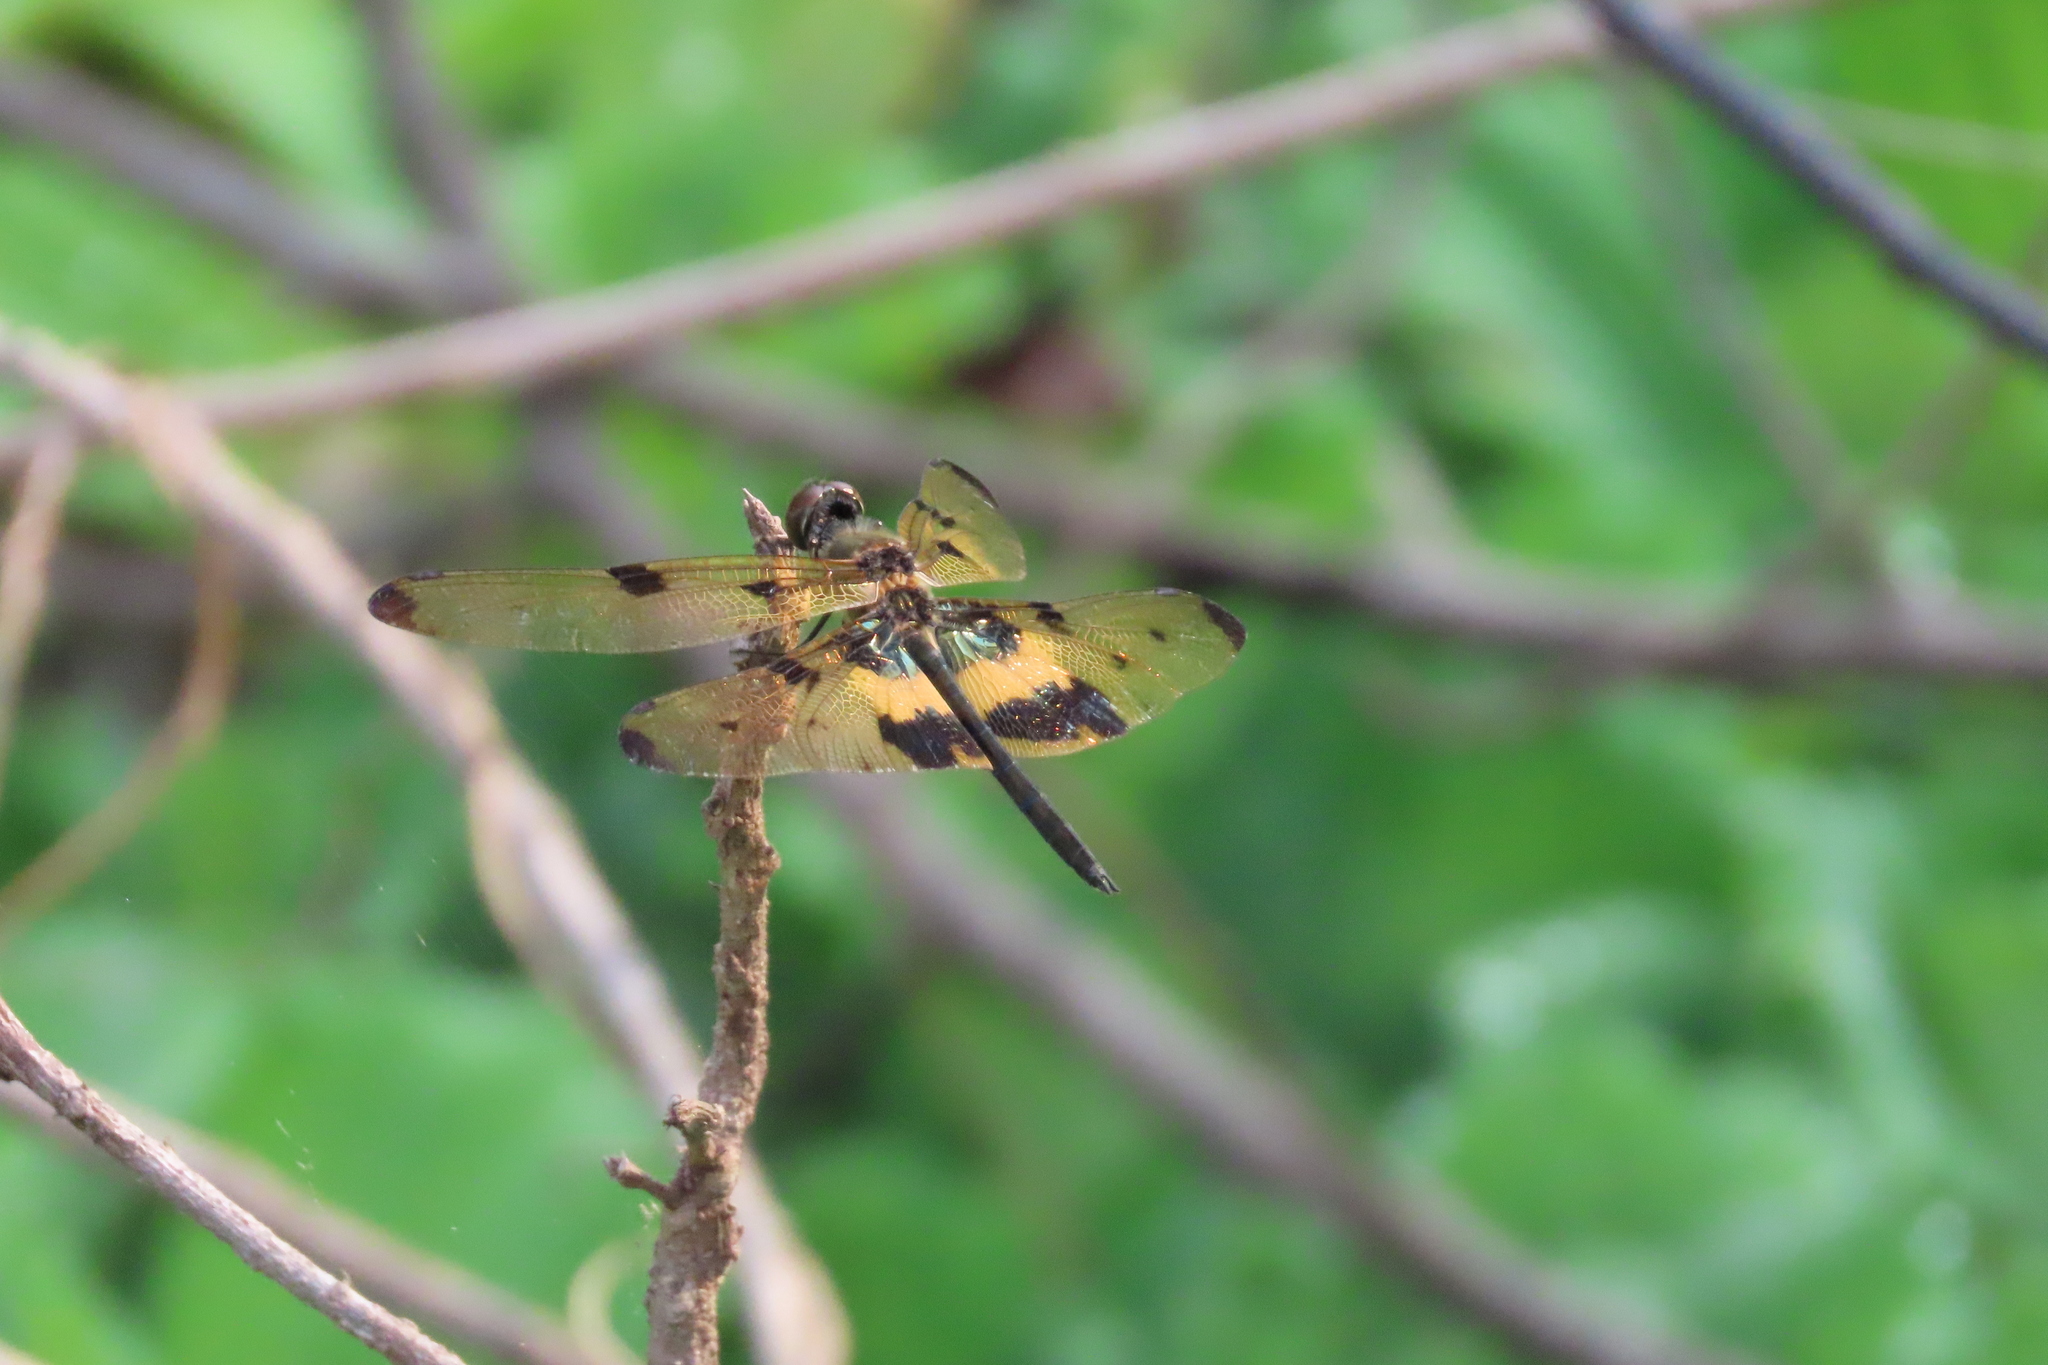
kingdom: Animalia
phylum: Arthropoda
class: Insecta
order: Odonata
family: Libellulidae
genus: Rhyothemis
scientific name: Rhyothemis variegata
